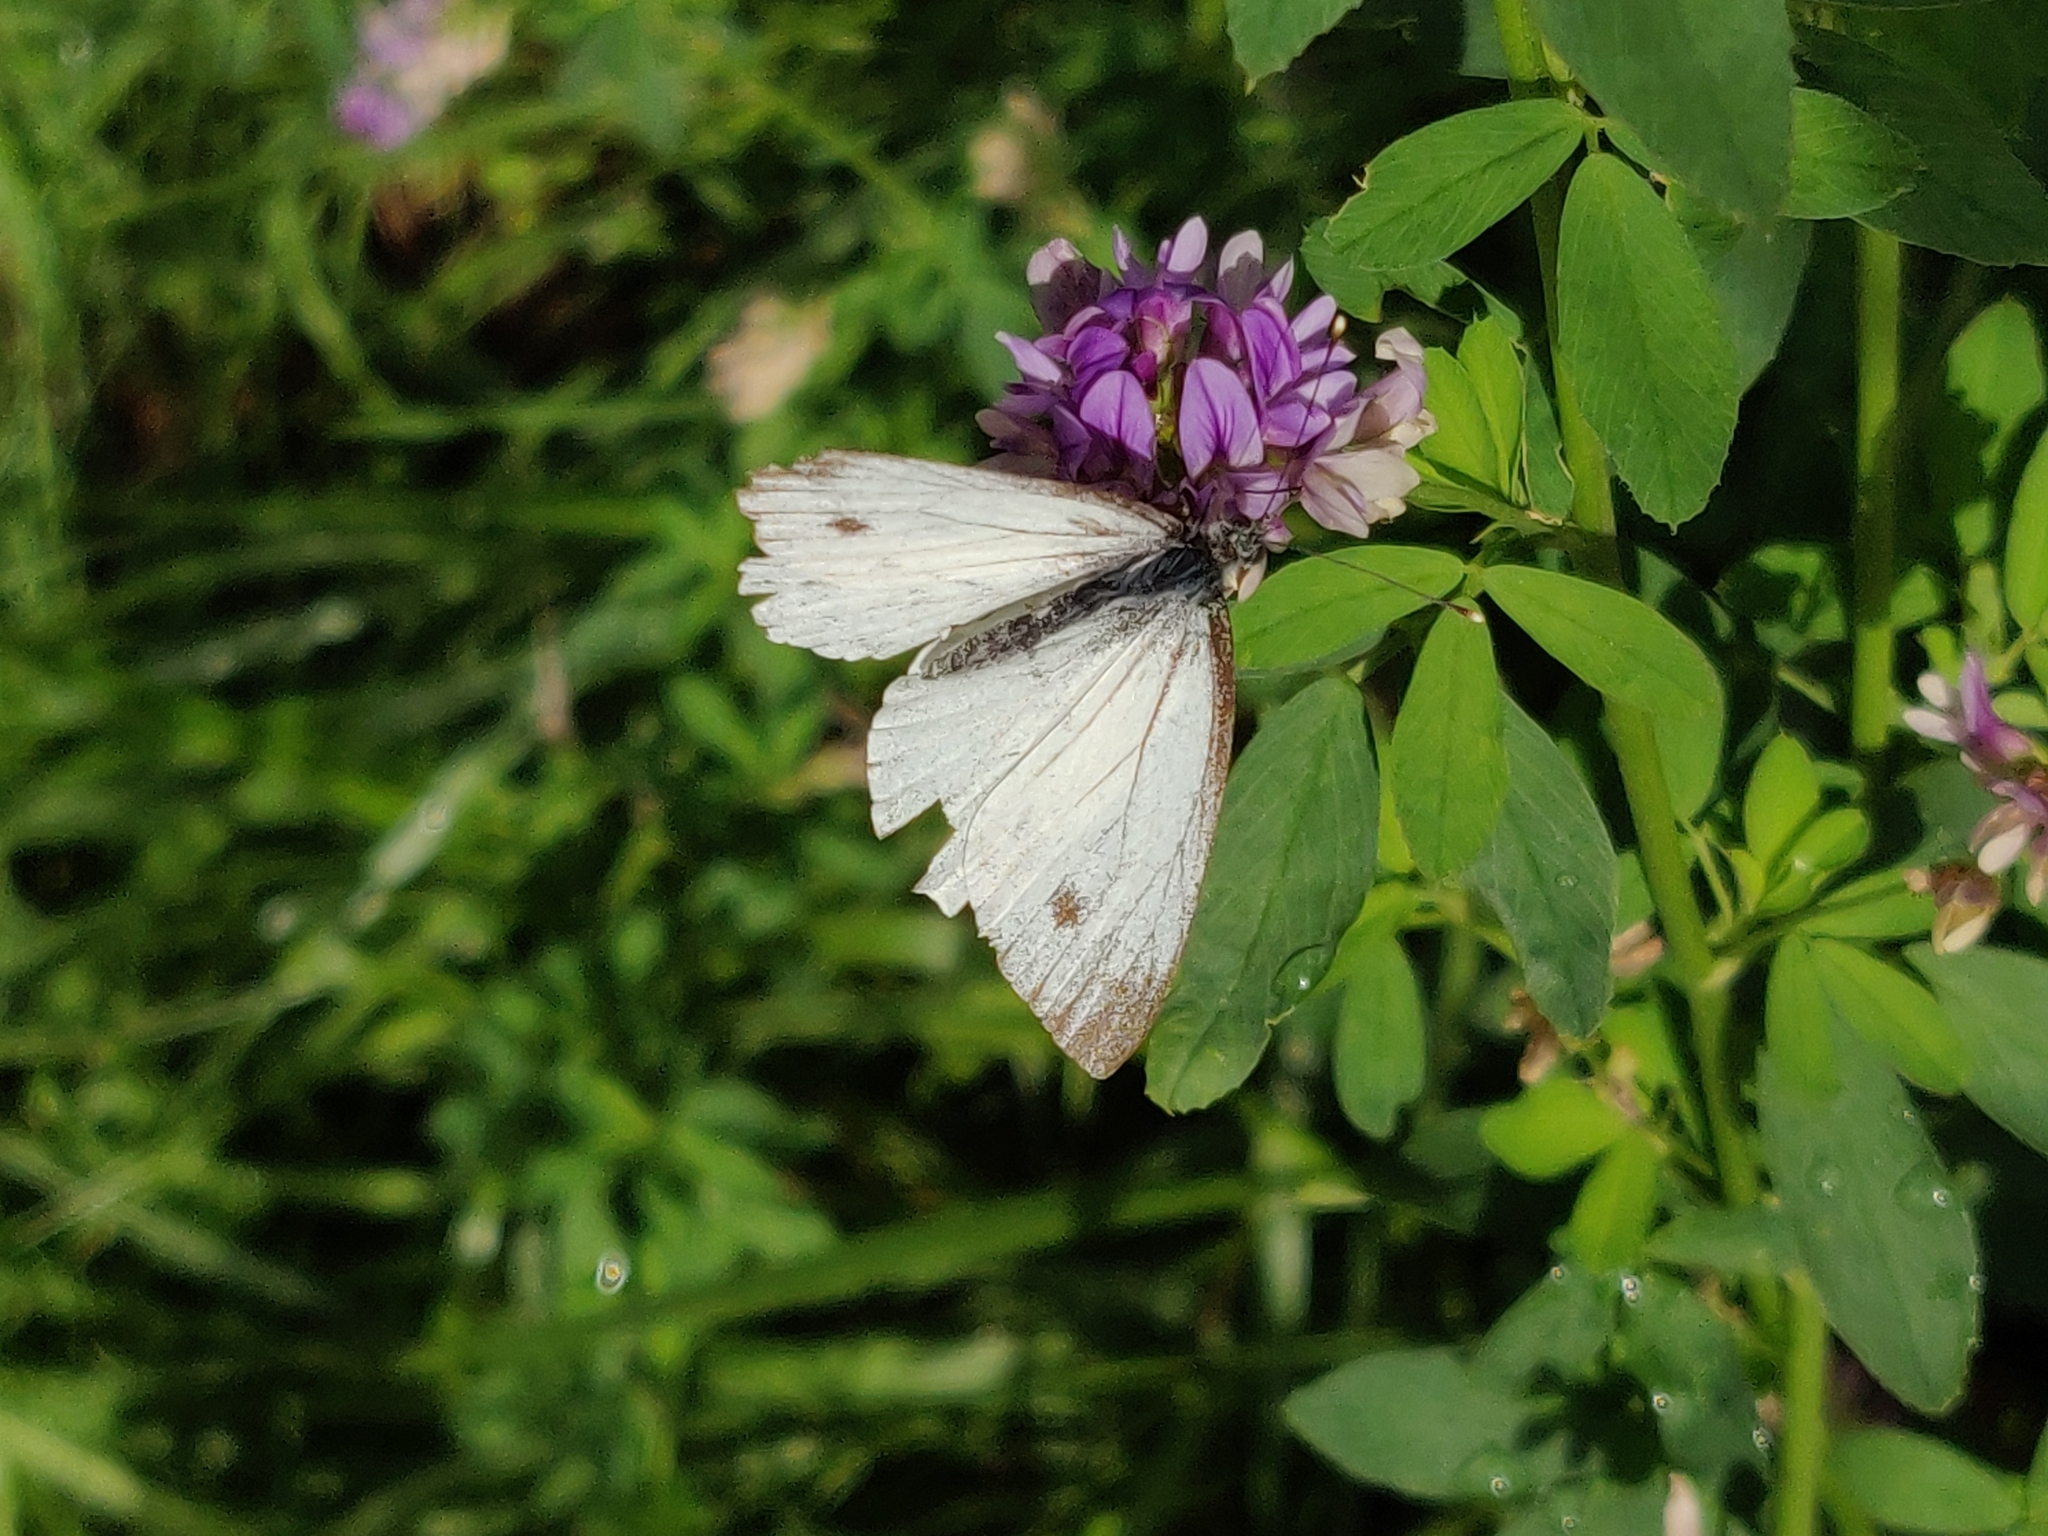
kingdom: Animalia
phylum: Arthropoda
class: Insecta
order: Lepidoptera
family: Pieridae
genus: Pieris
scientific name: Pieris napi
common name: Green-veined white
